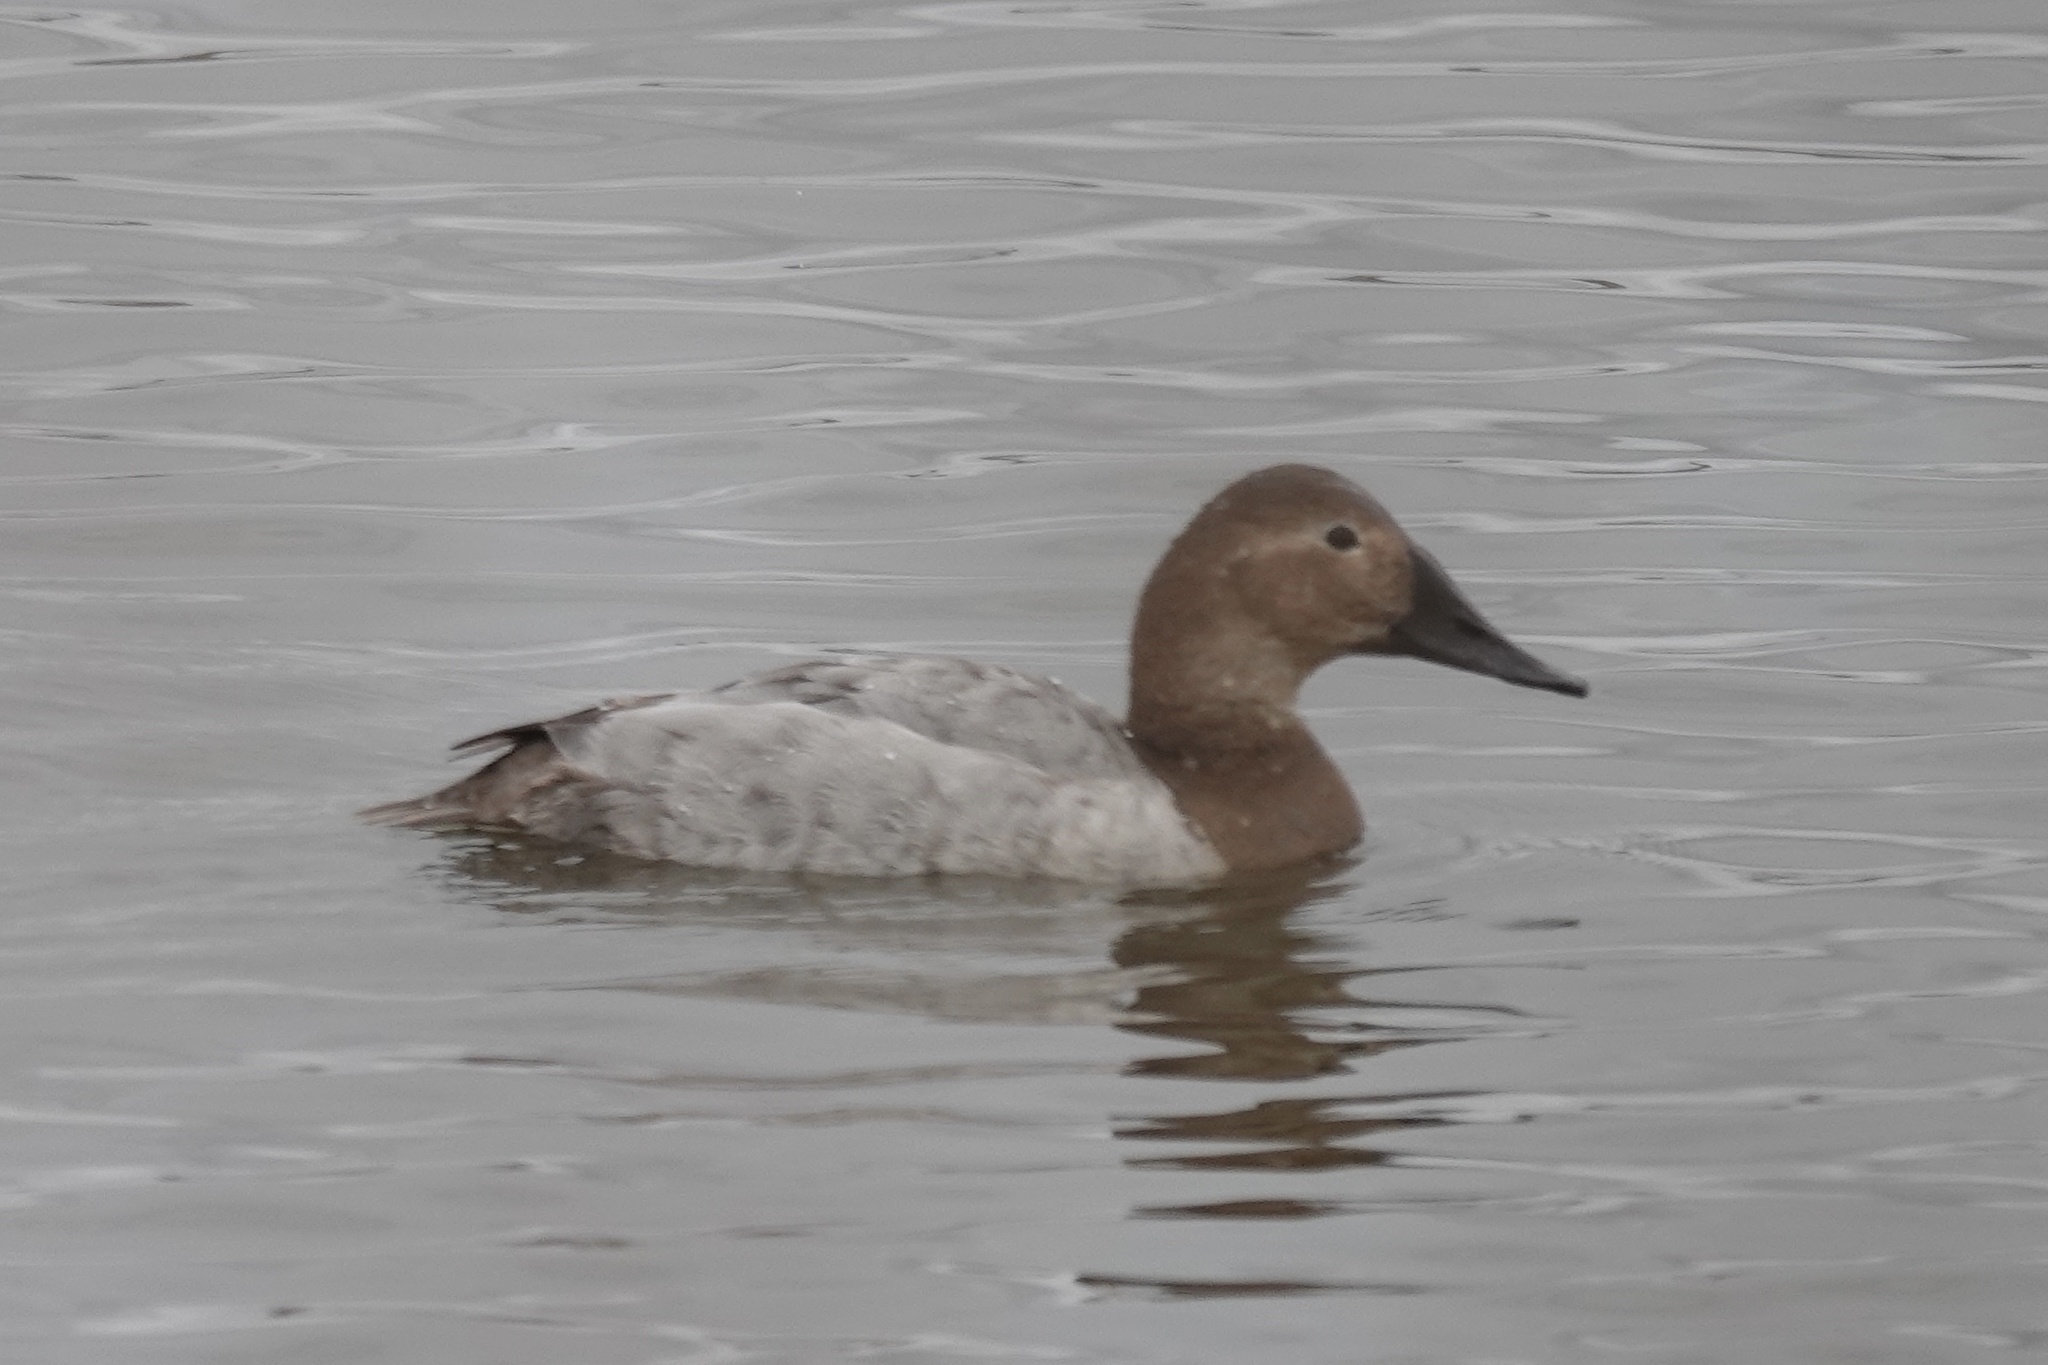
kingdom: Animalia
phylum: Chordata
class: Aves
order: Anseriformes
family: Anatidae
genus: Aythya
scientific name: Aythya valisineria
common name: Canvasback
